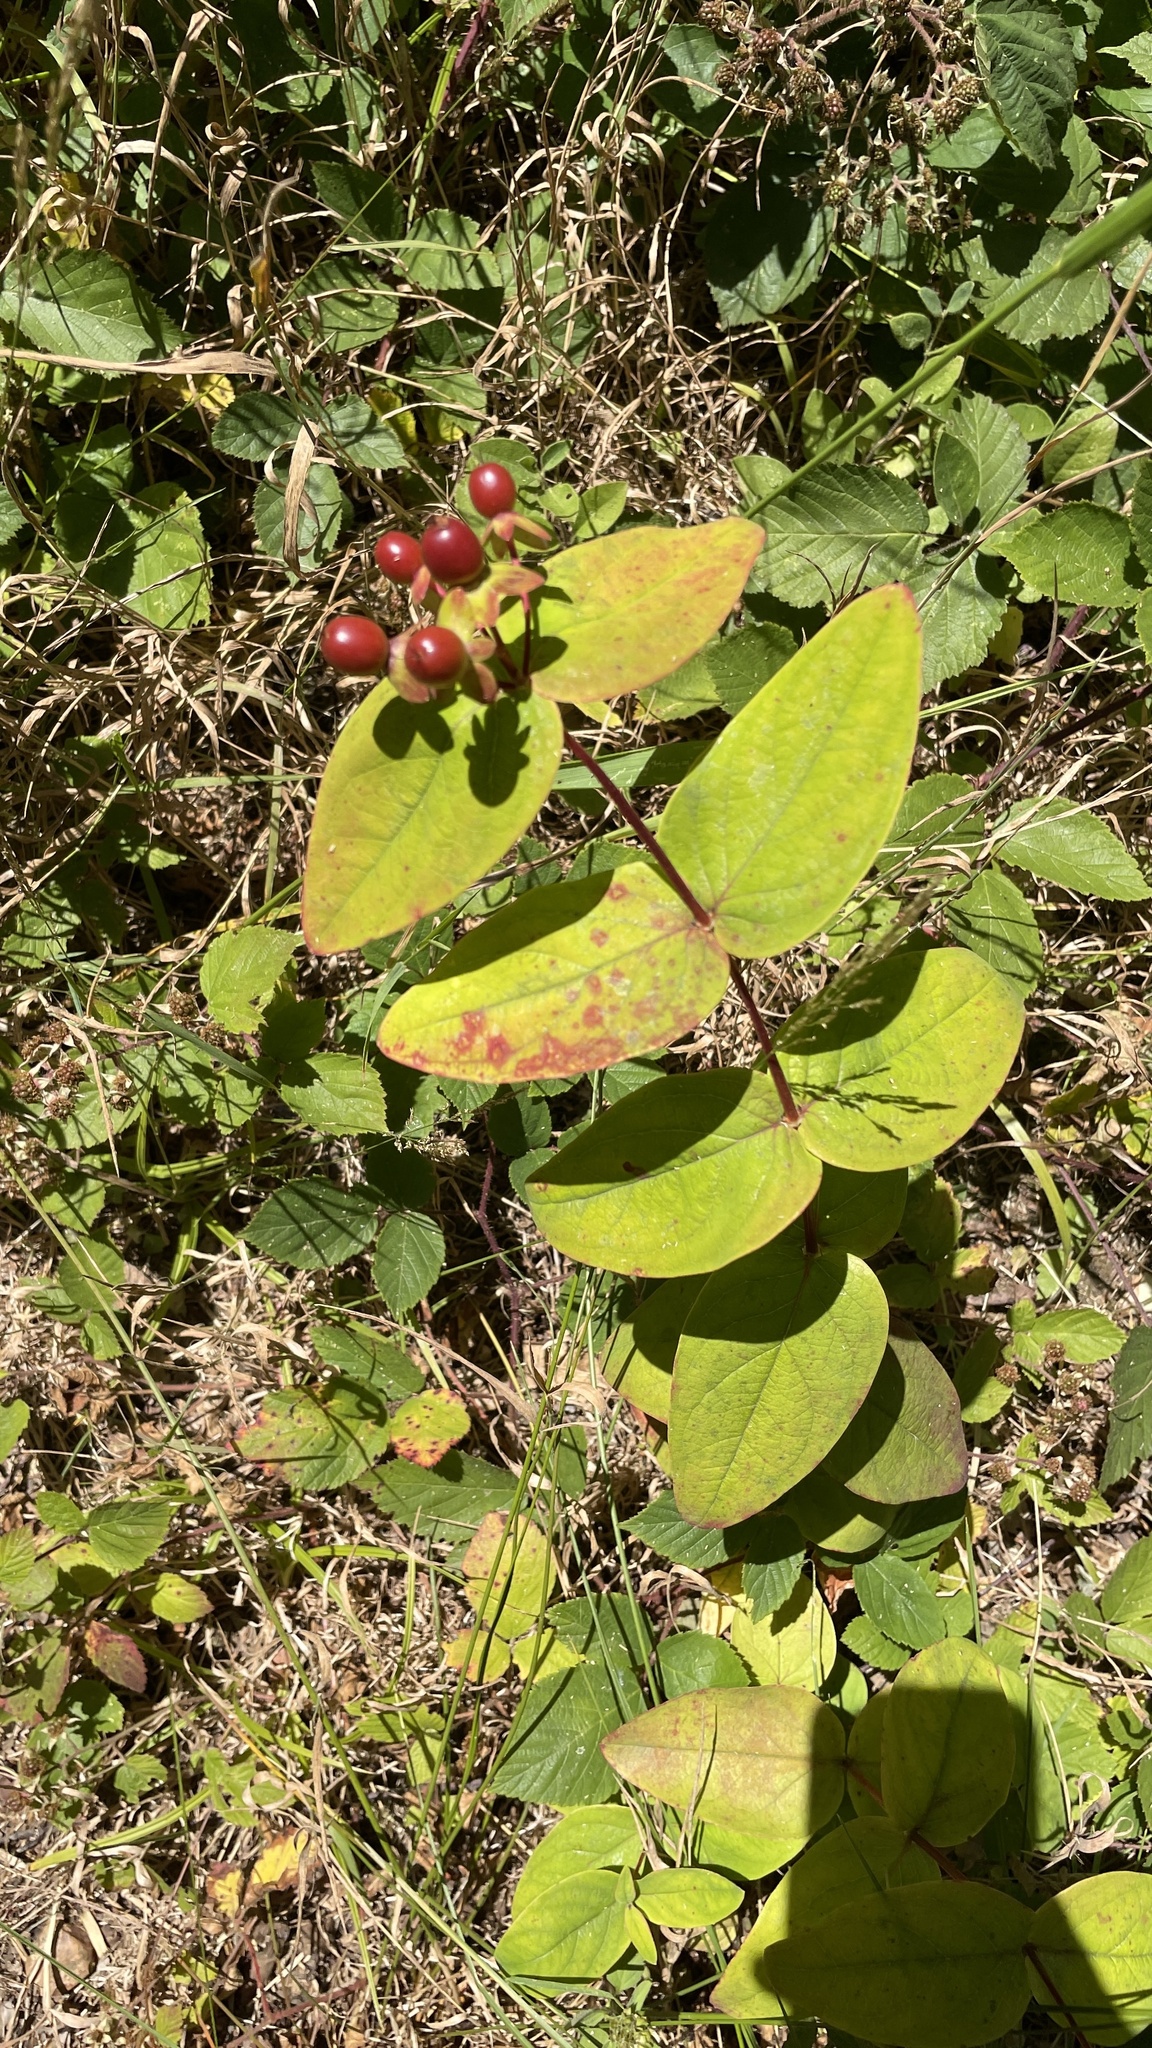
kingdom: Plantae
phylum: Tracheophyta
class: Magnoliopsida
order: Malpighiales
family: Hypericaceae
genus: Hypericum
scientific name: Hypericum androsaemum
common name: Sweet-amber
